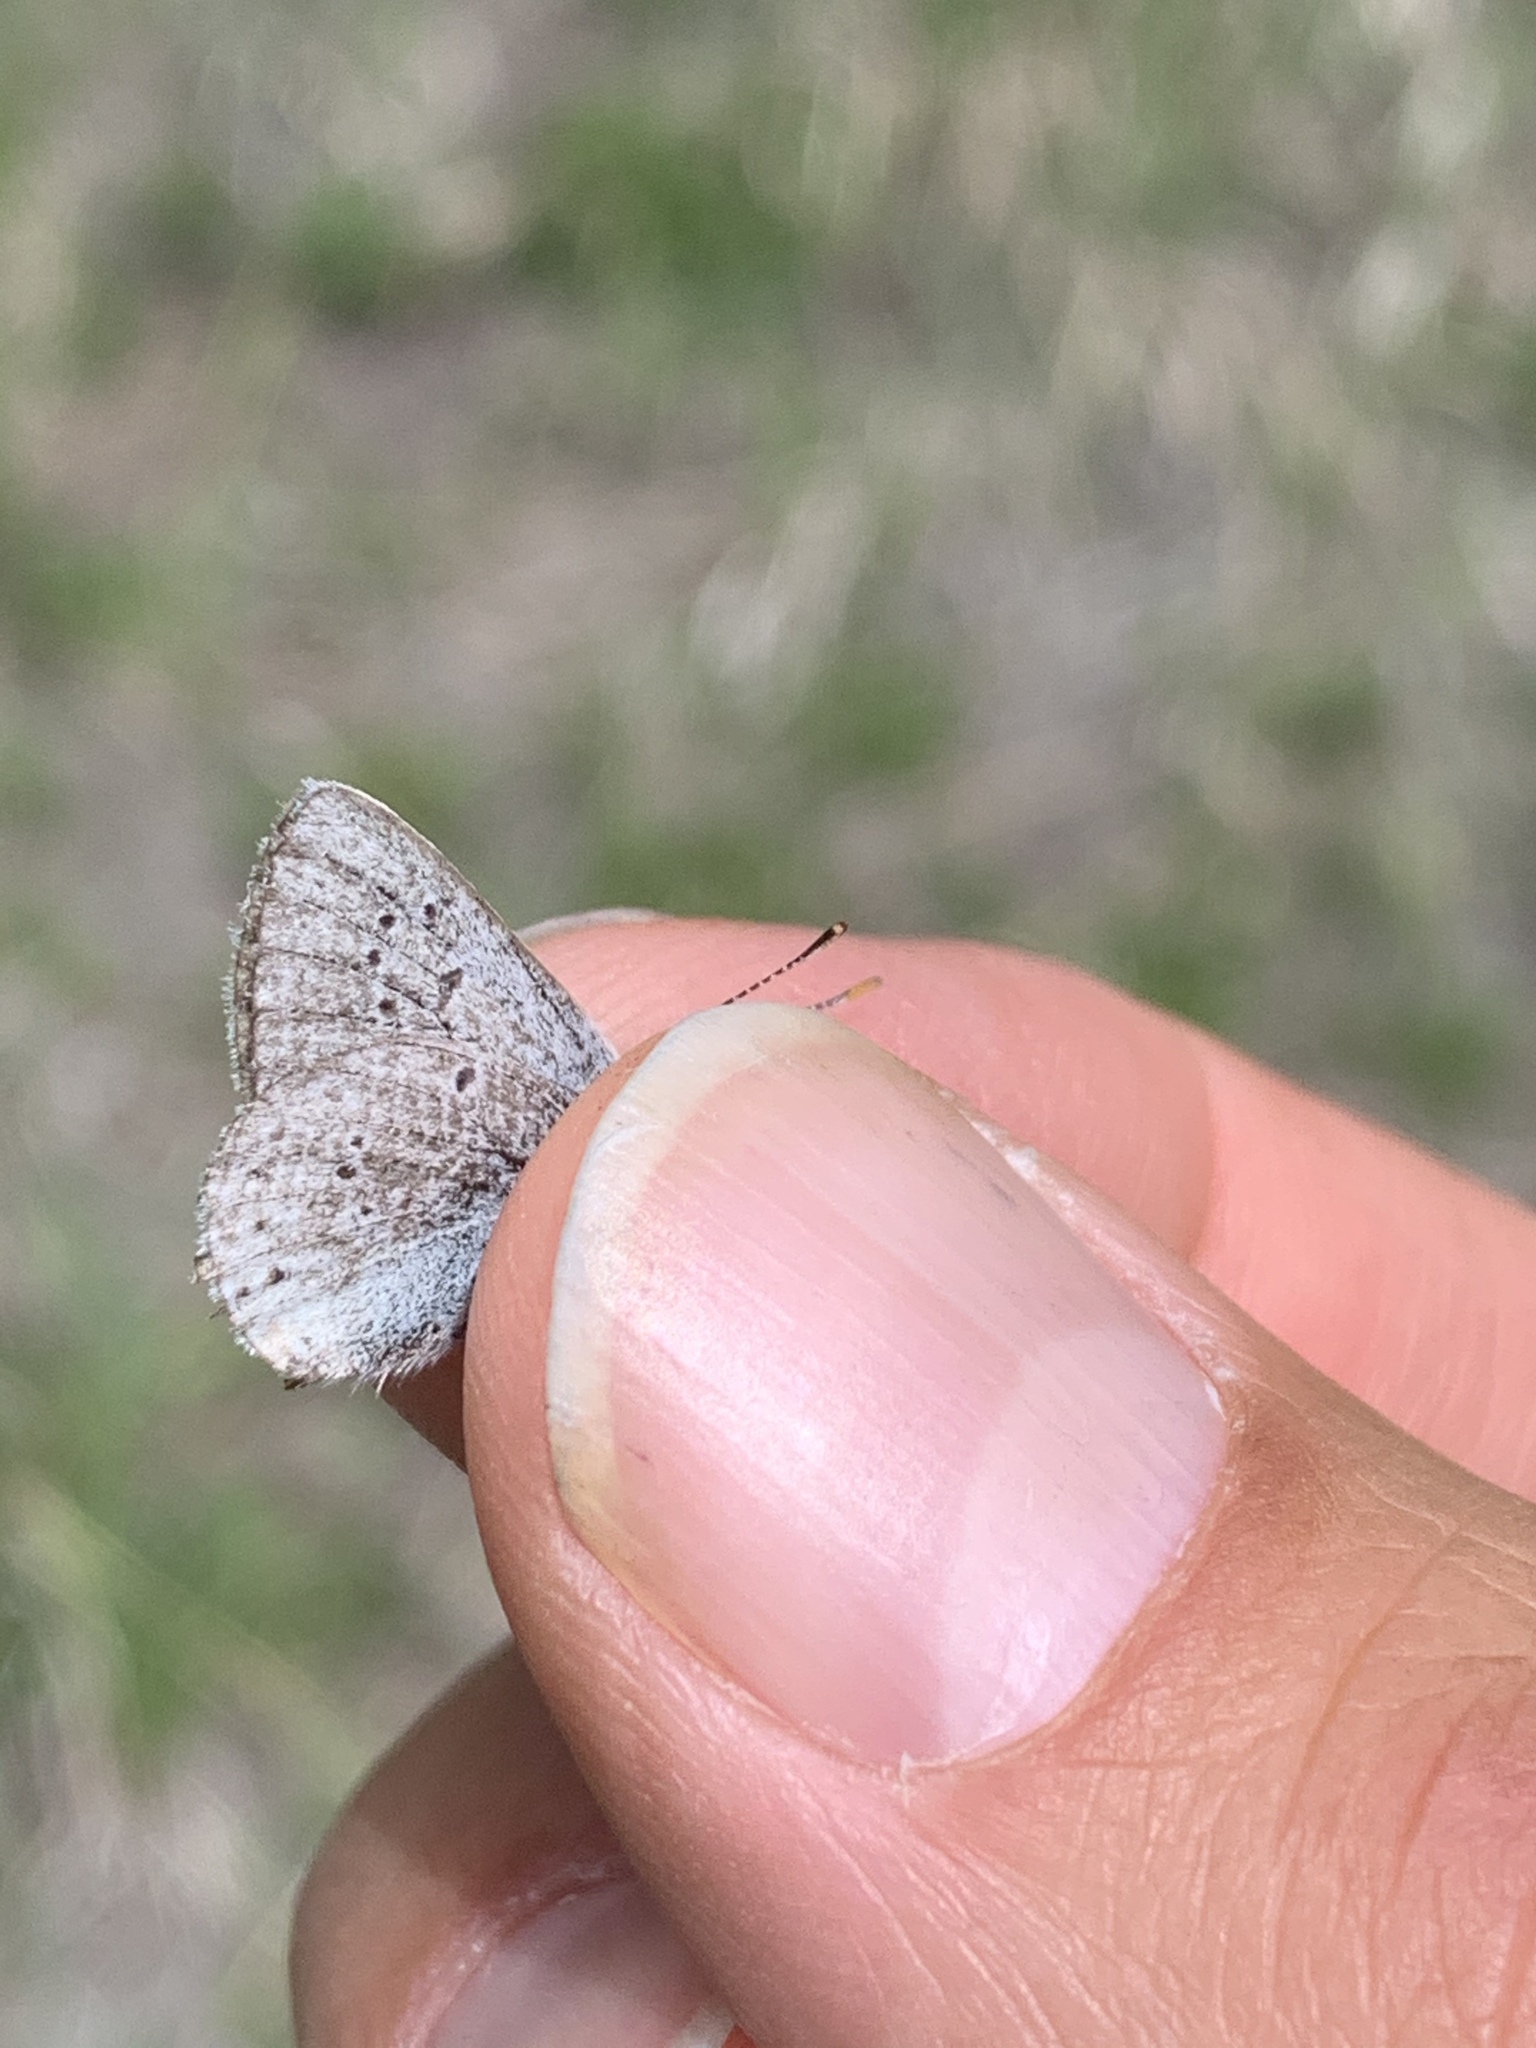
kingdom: Animalia
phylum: Arthropoda
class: Insecta
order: Lepidoptera
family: Lycaenidae
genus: Icaricia
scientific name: Icaricia saepiolus
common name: Greenish blue
